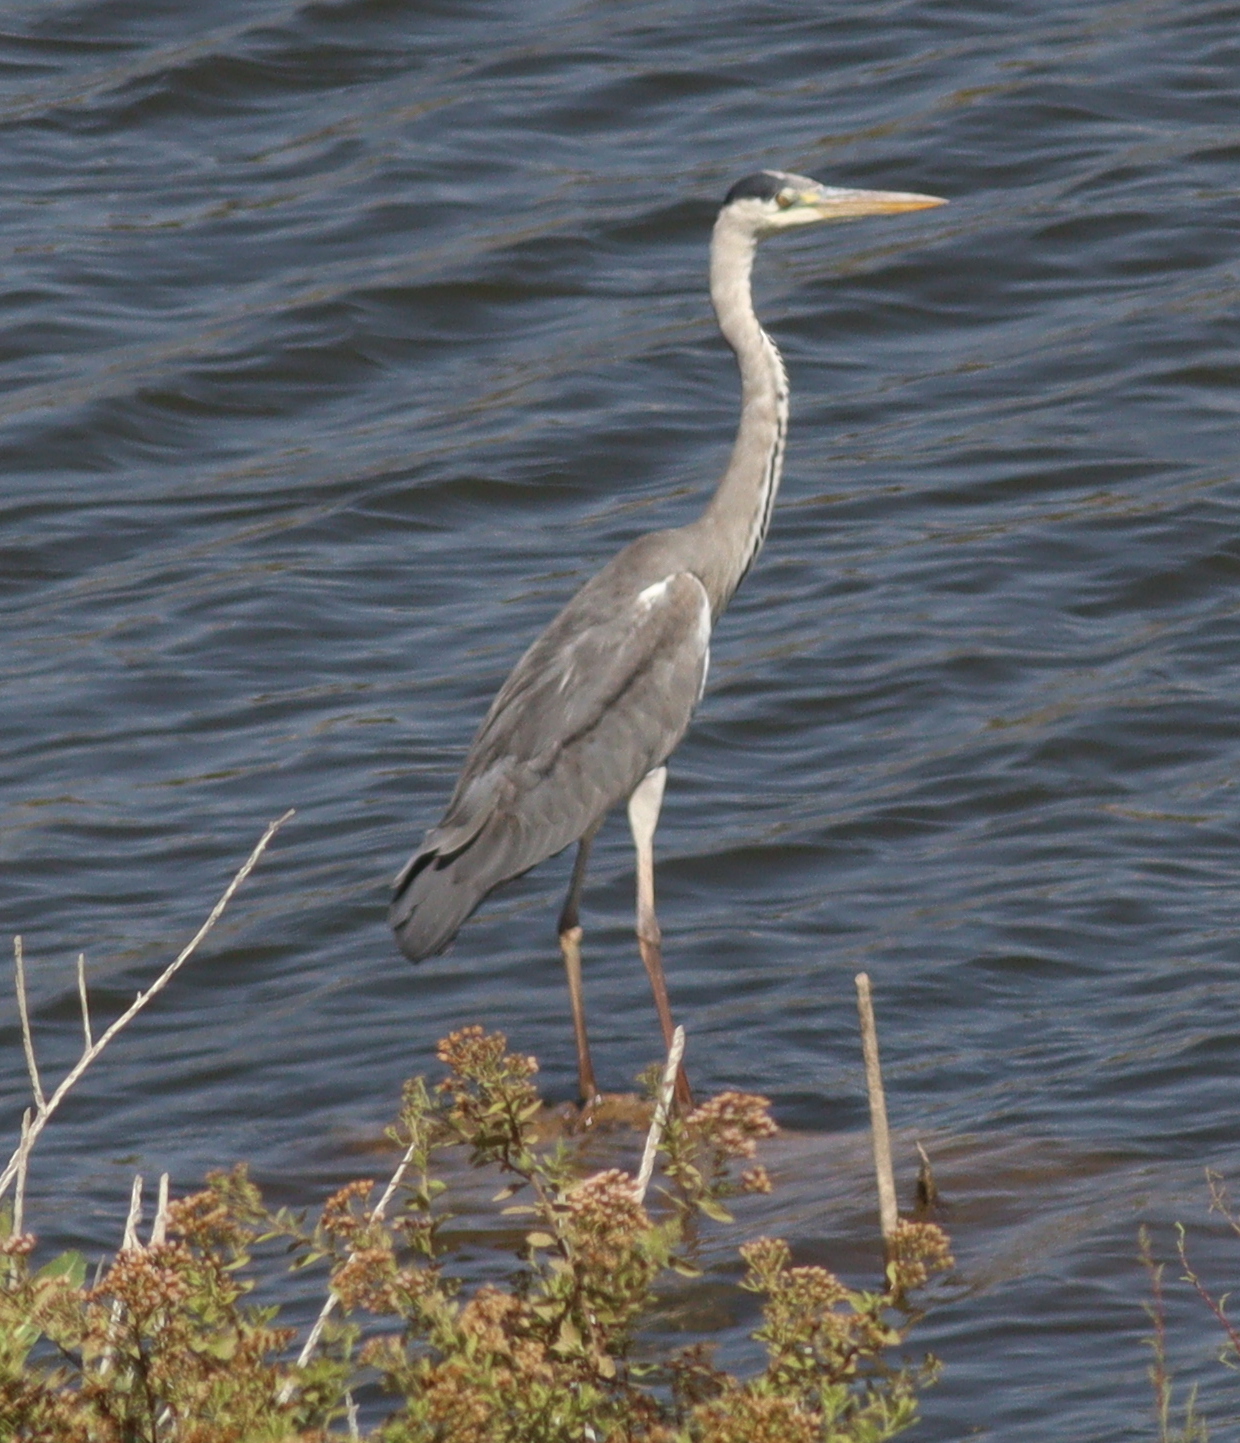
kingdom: Animalia
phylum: Chordata
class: Aves
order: Pelecaniformes
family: Ardeidae
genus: Ardea
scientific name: Ardea cinerea
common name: Grey heron
